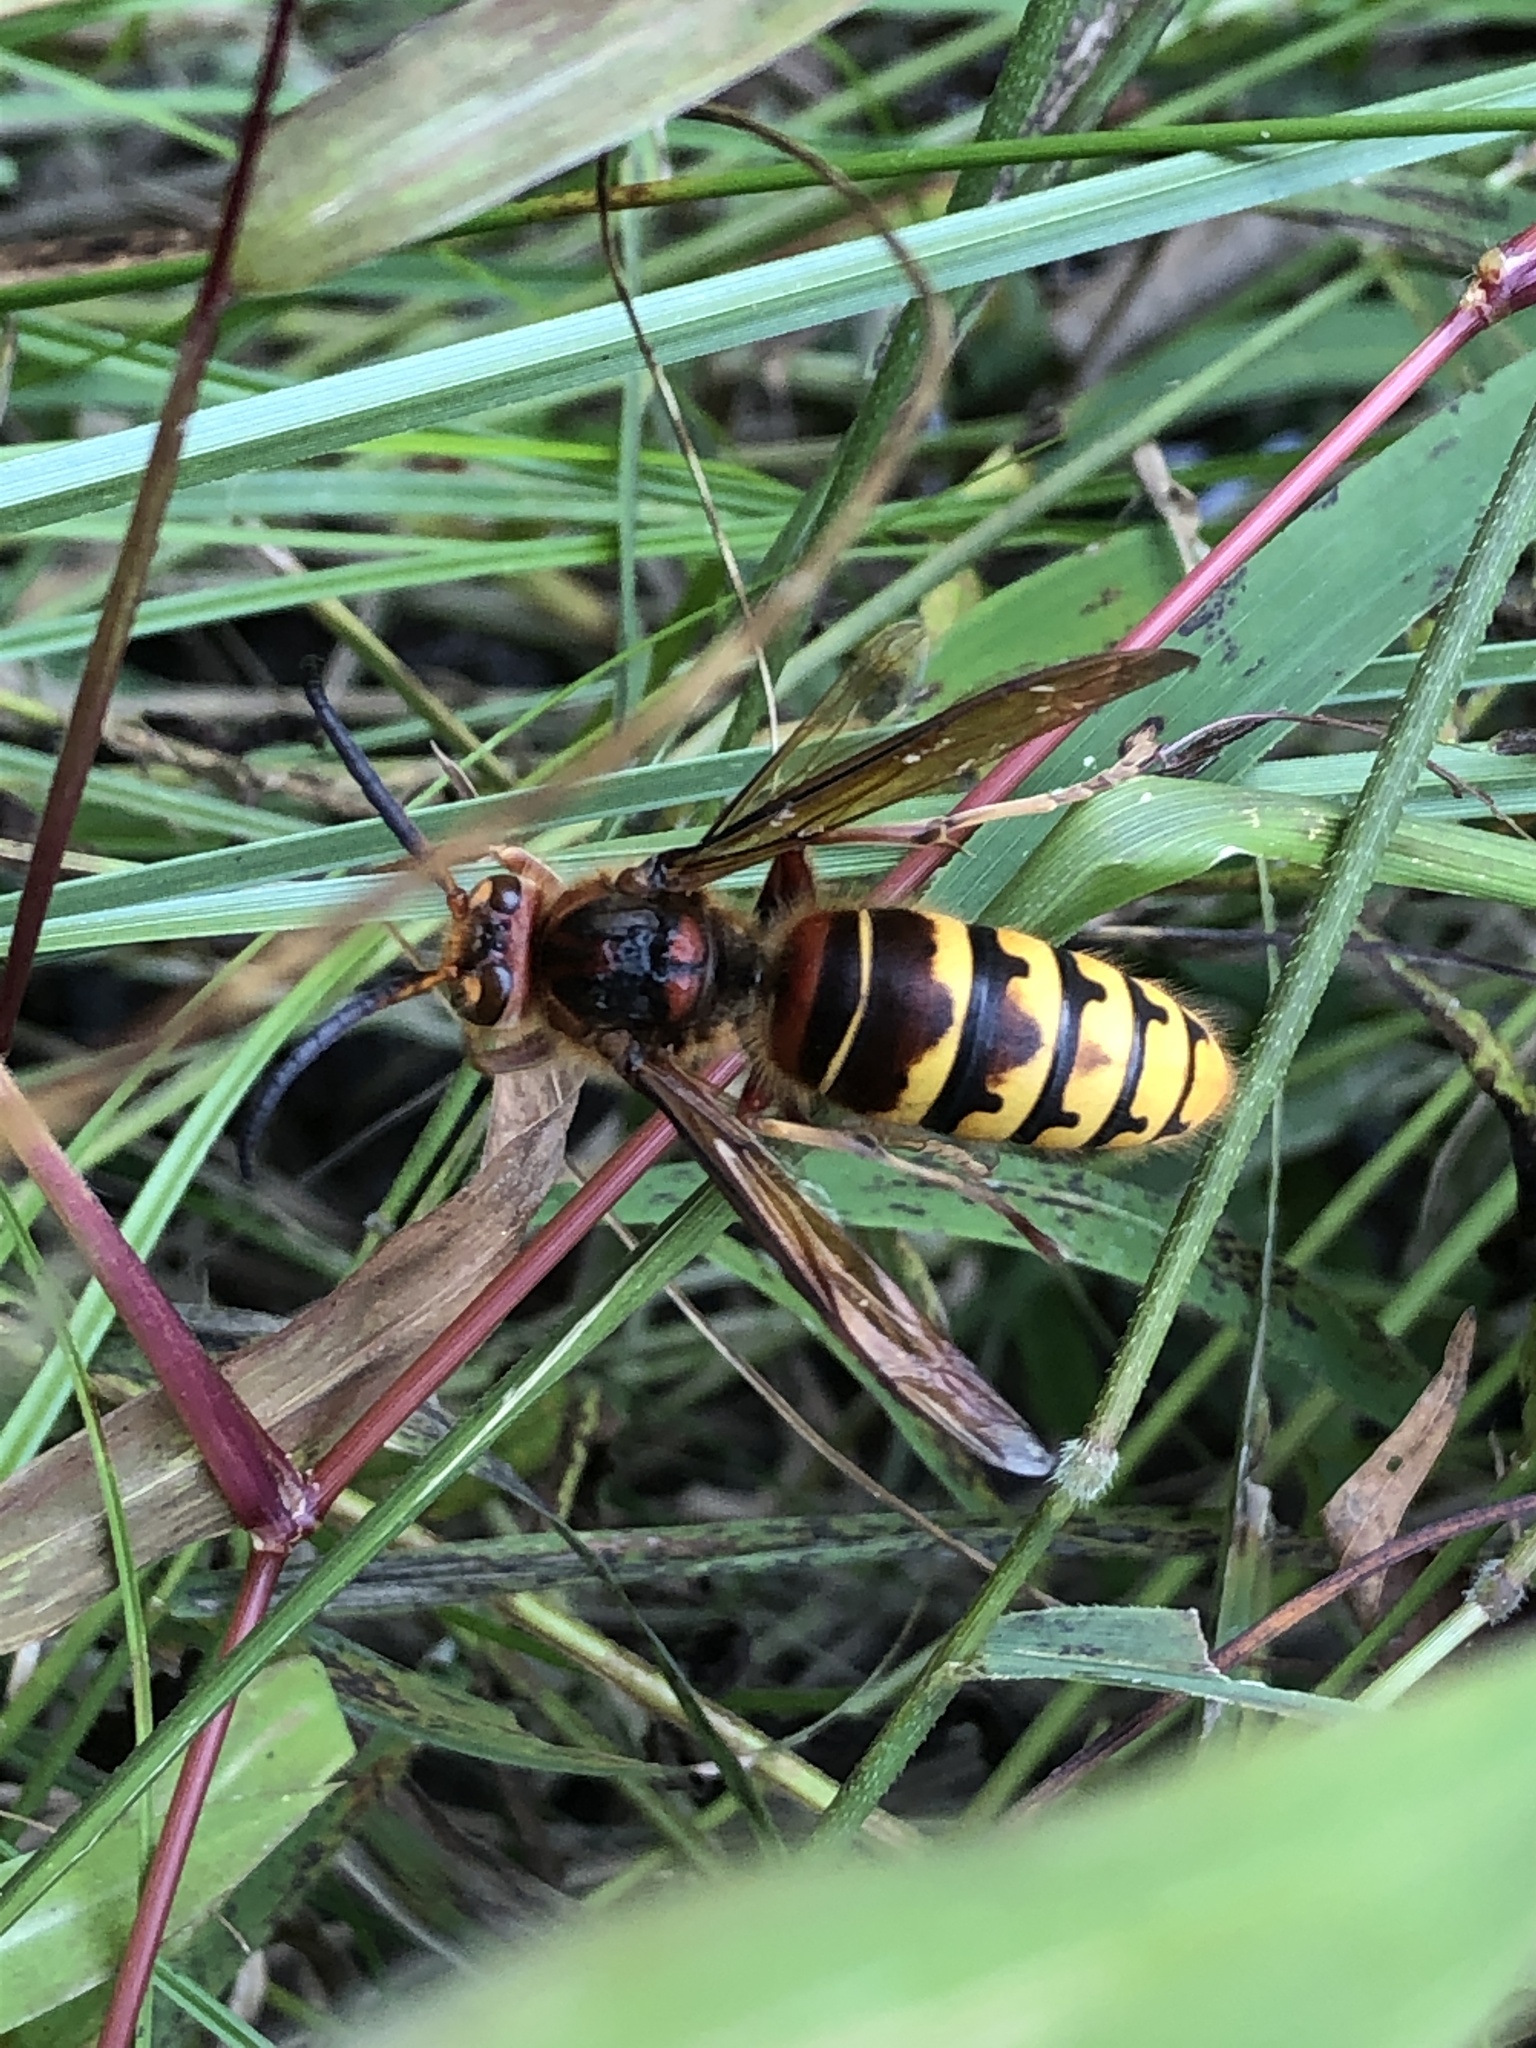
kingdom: Animalia
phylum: Arthropoda
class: Insecta
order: Hymenoptera
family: Vespidae
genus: Vespa
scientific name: Vespa crabro
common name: Hornet
